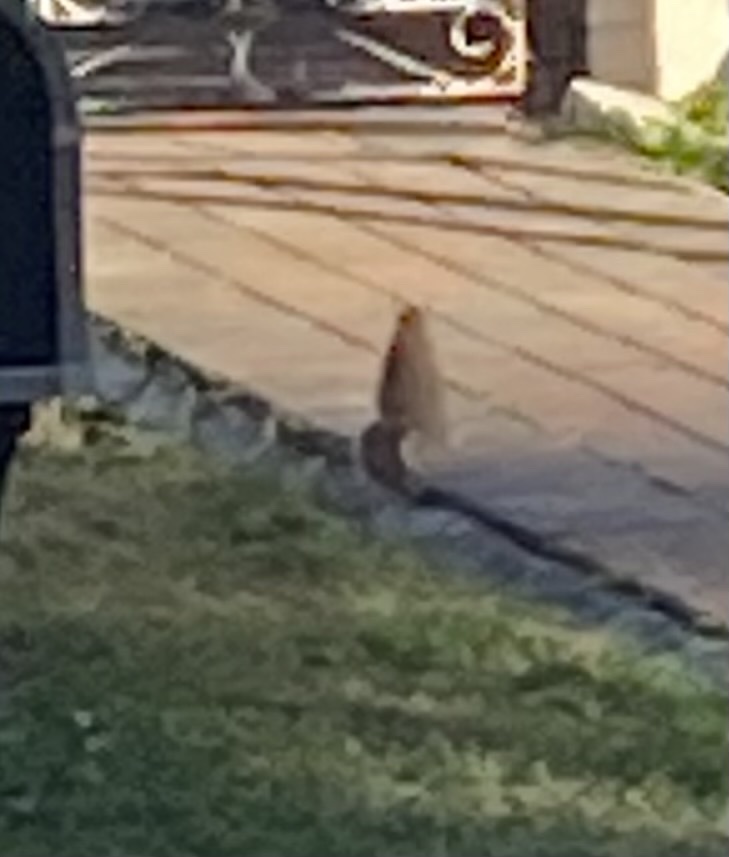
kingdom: Animalia
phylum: Chordata
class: Mammalia
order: Rodentia
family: Sciuridae
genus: Sciurus
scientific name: Sciurus carolinensis
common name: Eastern gray squirrel
